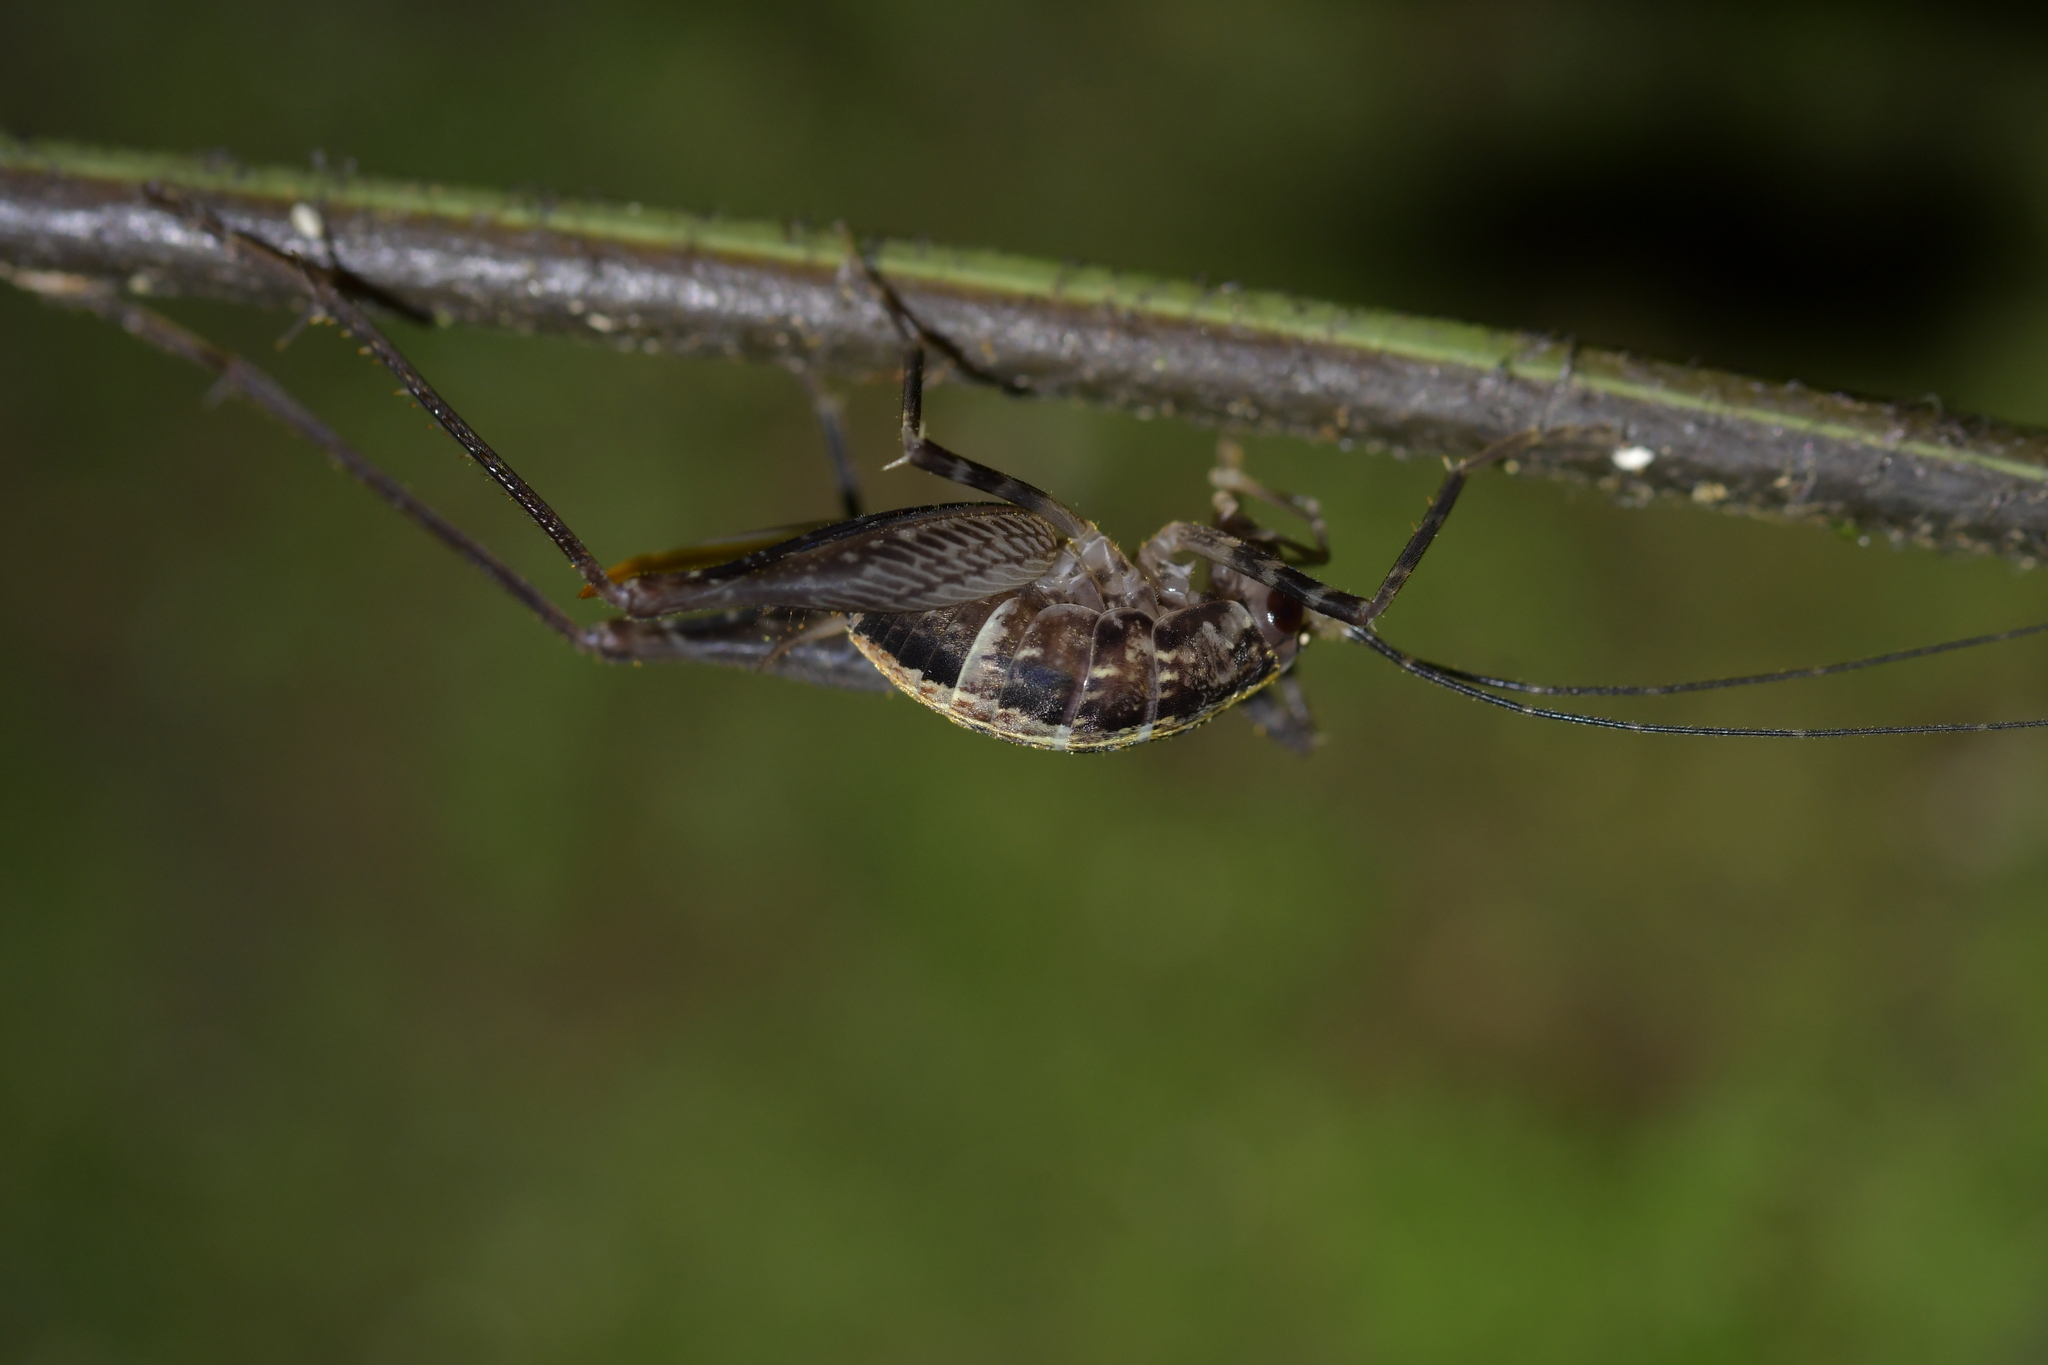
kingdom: Animalia
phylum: Arthropoda
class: Insecta
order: Orthoptera
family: Rhaphidophoridae
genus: Pleioplectron
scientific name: Pleioplectron hudsoni
